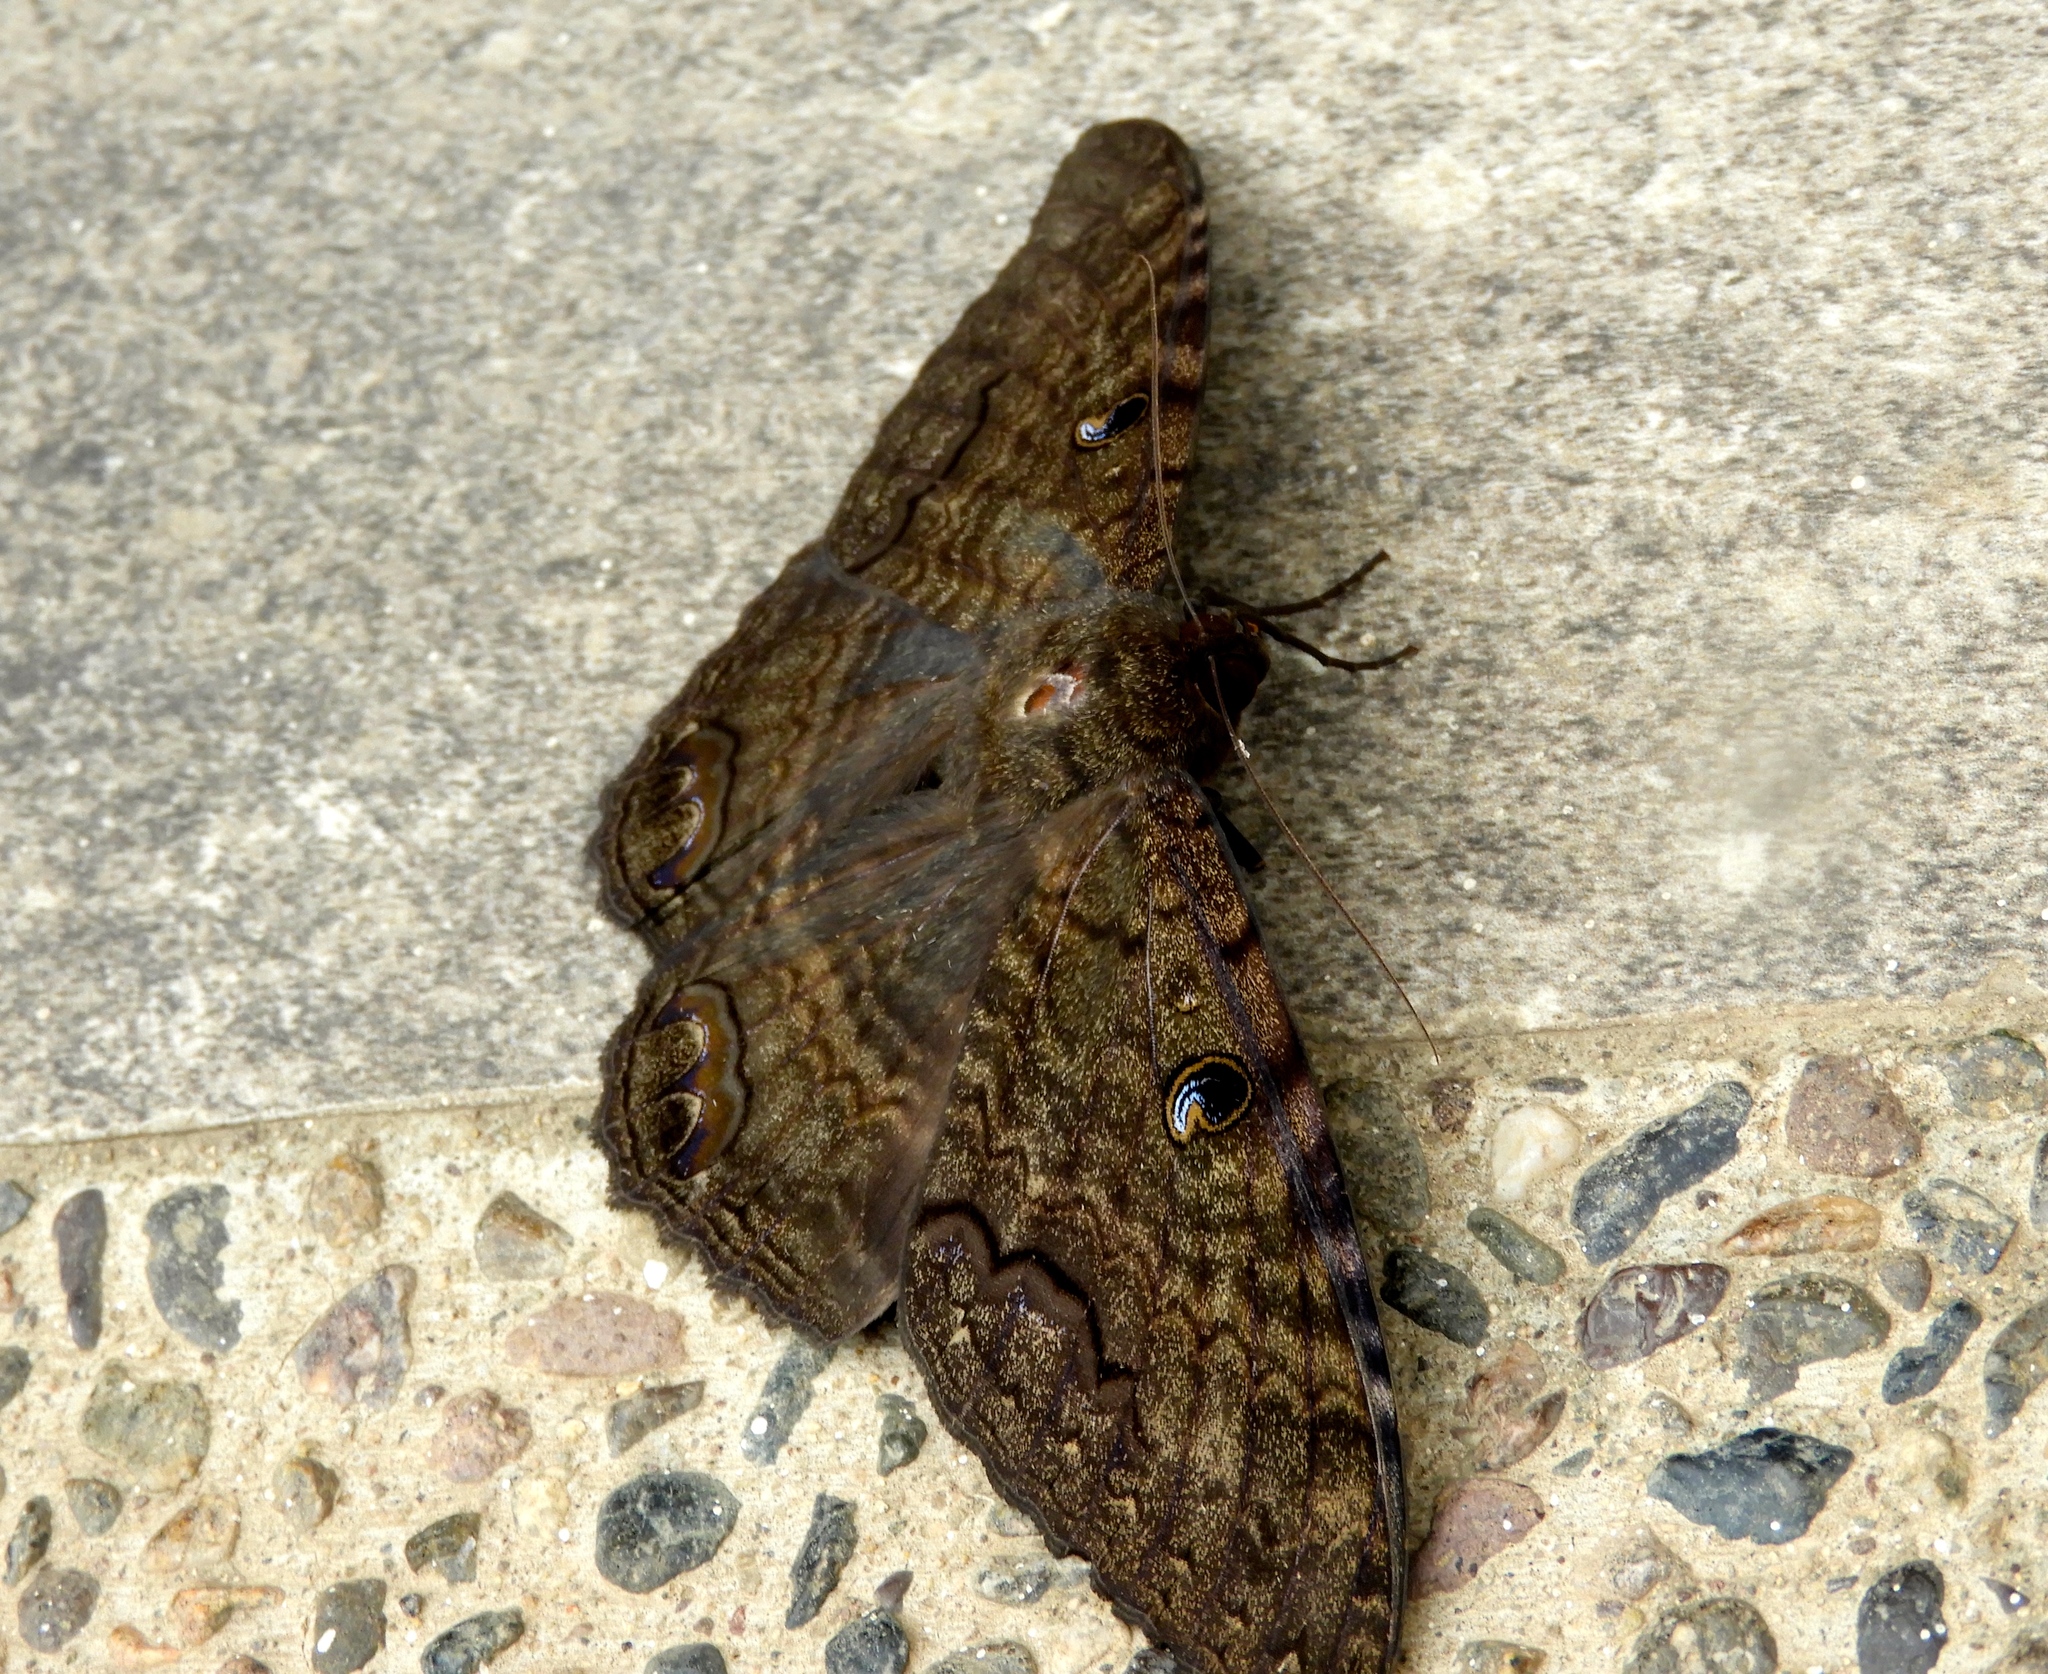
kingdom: Animalia
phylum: Arthropoda
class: Insecta
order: Lepidoptera
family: Erebidae
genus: Ascalapha
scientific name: Ascalapha odorata
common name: Black witch
